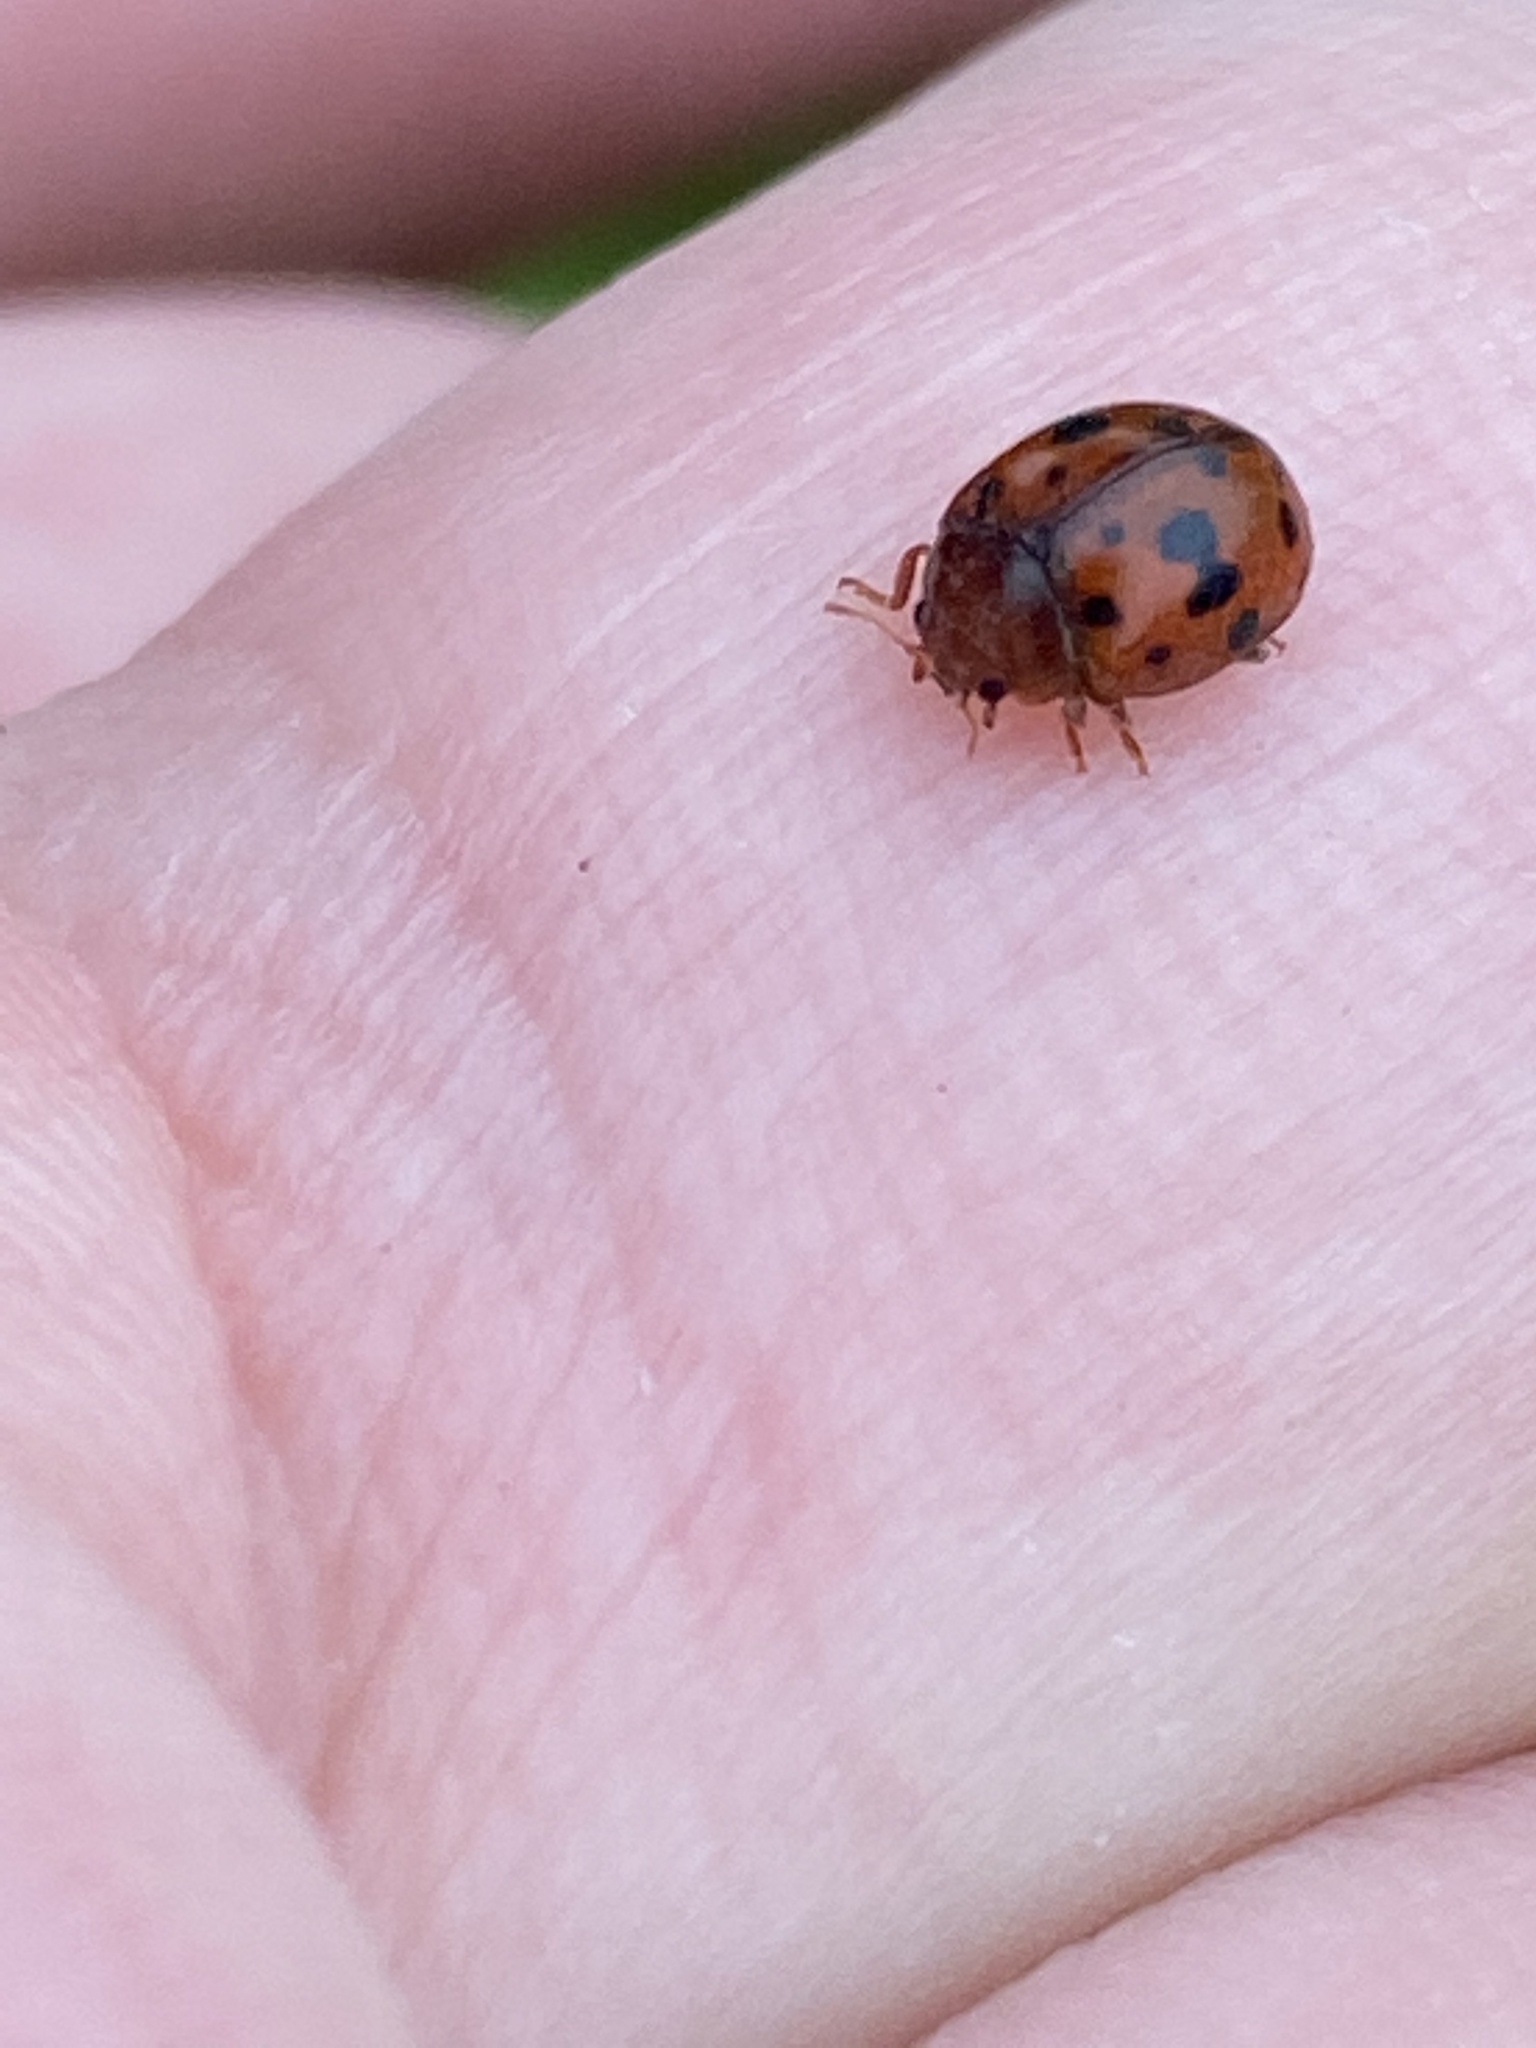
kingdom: Animalia
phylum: Arthropoda
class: Insecta
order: Coleoptera
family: Coccinellidae
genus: Subcoccinella
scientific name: Subcoccinella vigintiquatuorpunctata
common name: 24-spot ladybird
